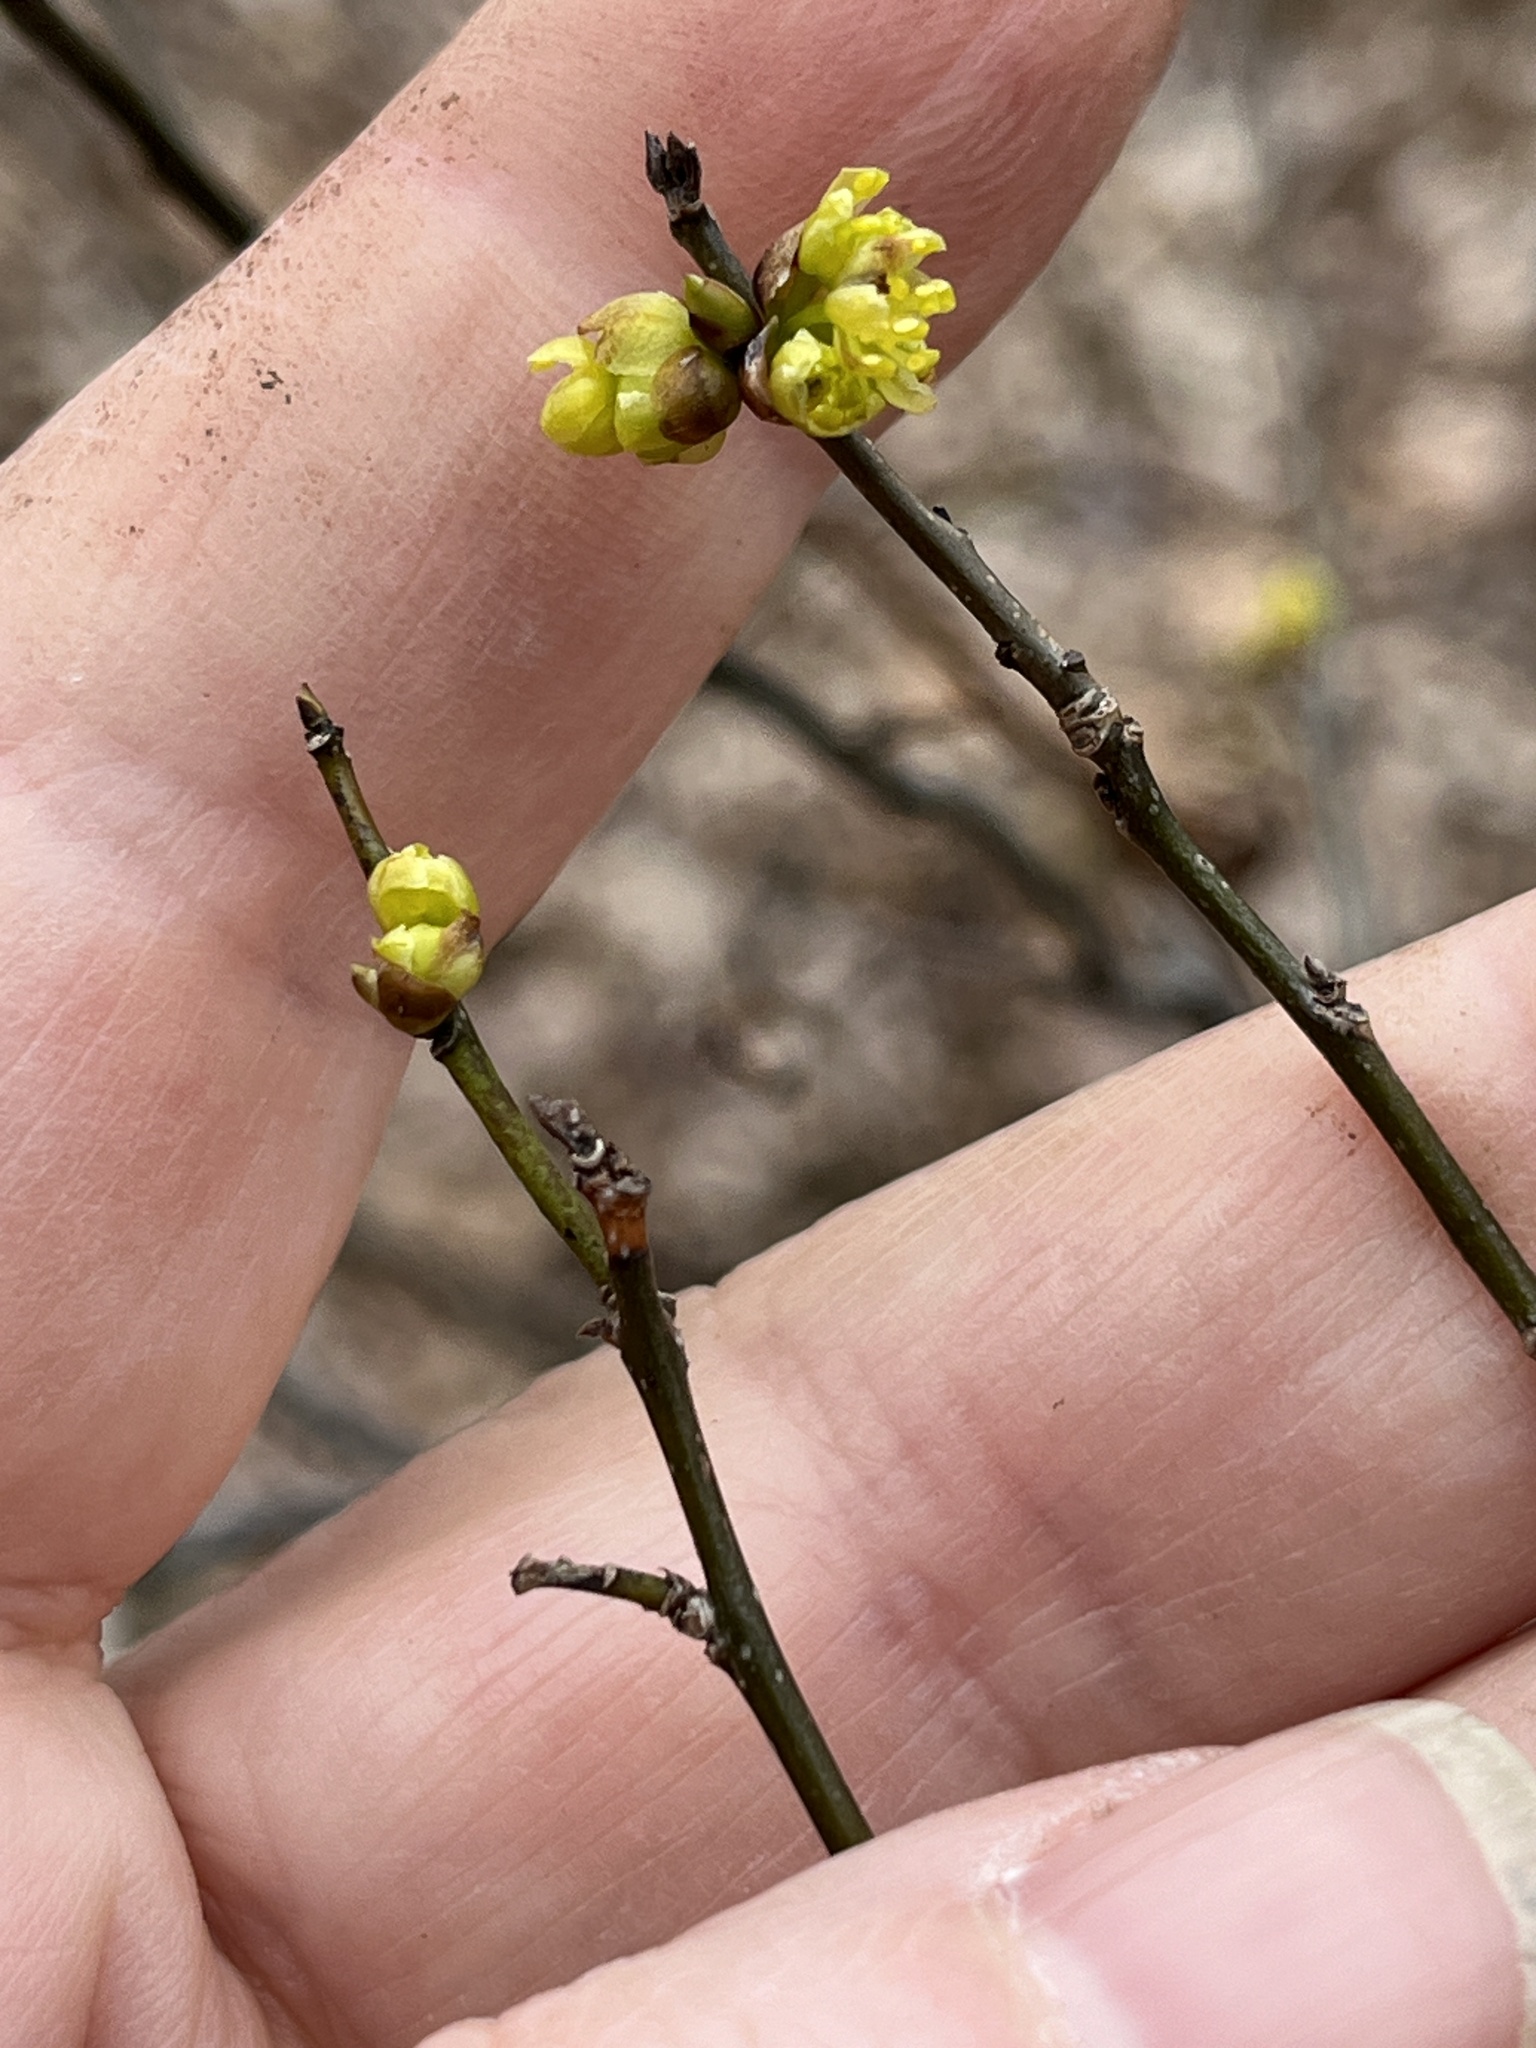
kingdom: Plantae
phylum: Tracheophyta
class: Magnoliopsida
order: Laurales
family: Lauraceae
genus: Lindera
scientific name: Lindera benzoin
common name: Spicebush
